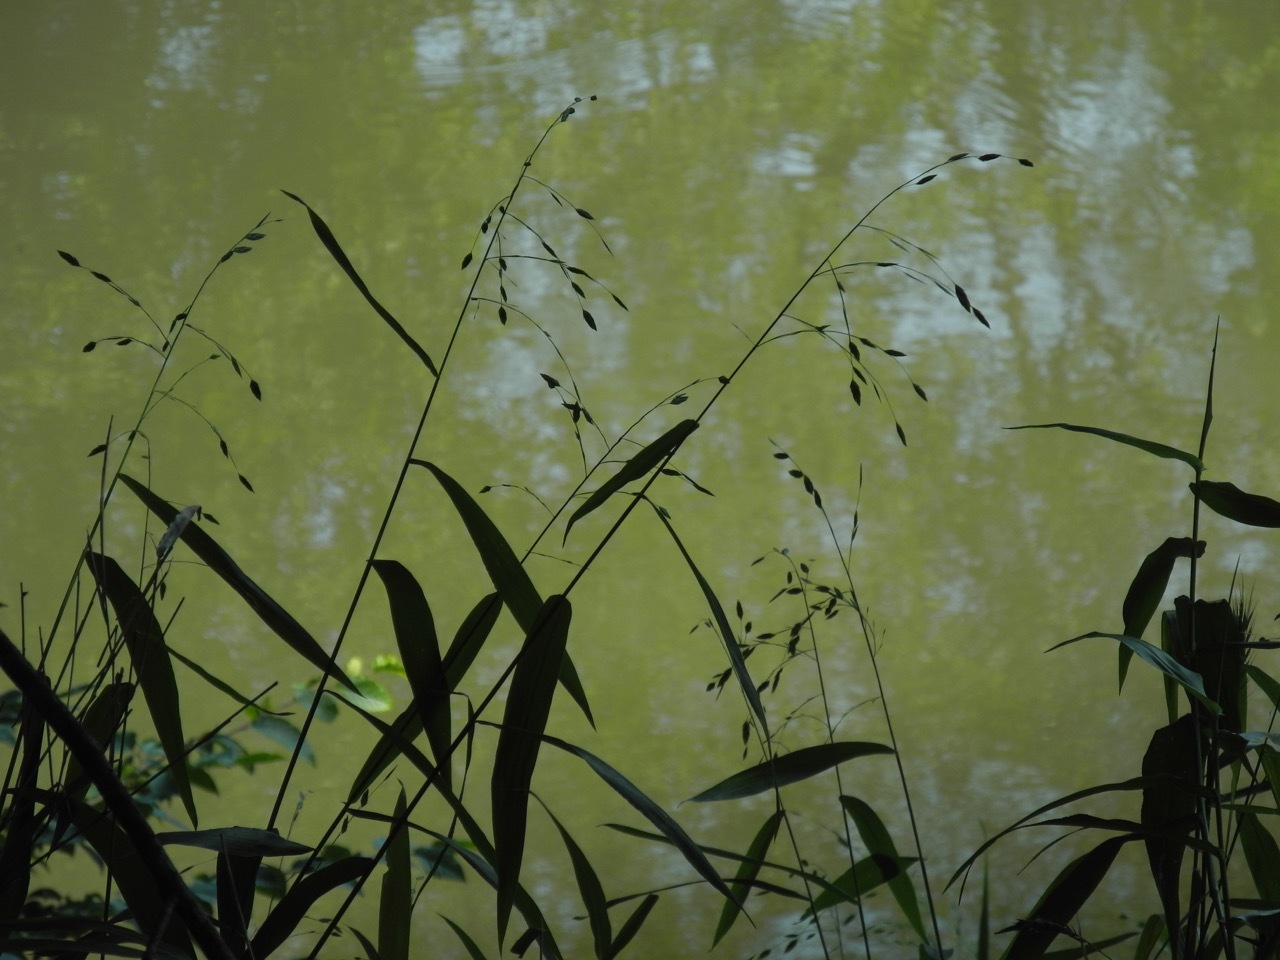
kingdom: Plantae
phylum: Tracheophyta
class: Liliopsida
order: Poales
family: Poaceae
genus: Chasmanthium
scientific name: Chasmanthium latifolium
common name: Broad-leaved chasmanthium
